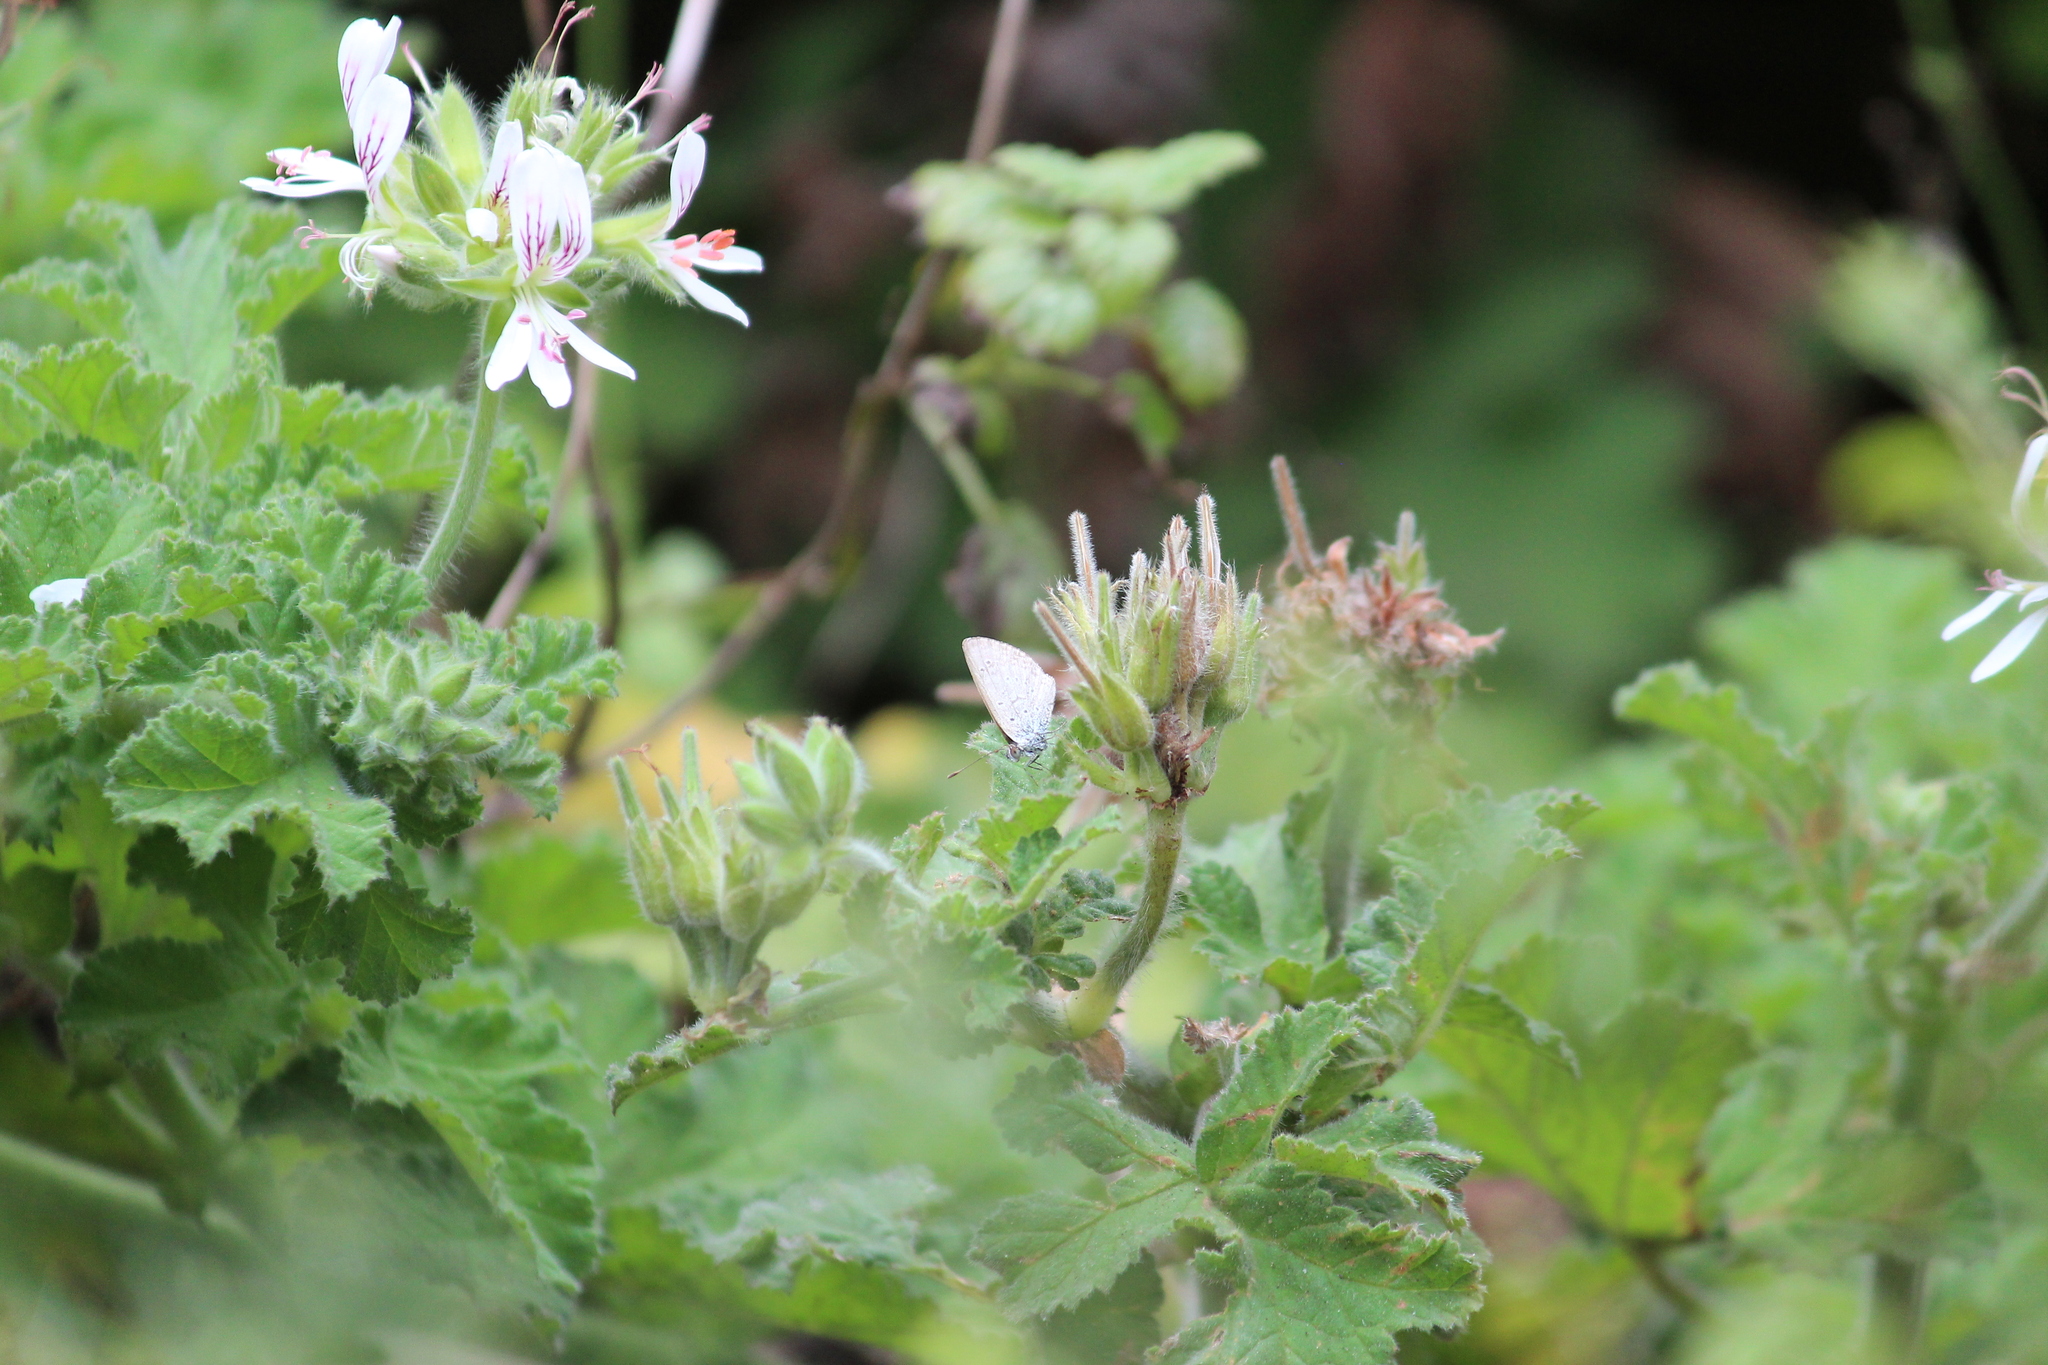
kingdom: Animalia
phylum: Arthropoda
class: Insecta
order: Lepidoptera
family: Lycaenidae
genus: Zizeeria
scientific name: Zizeeria knysna
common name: African grass blue
